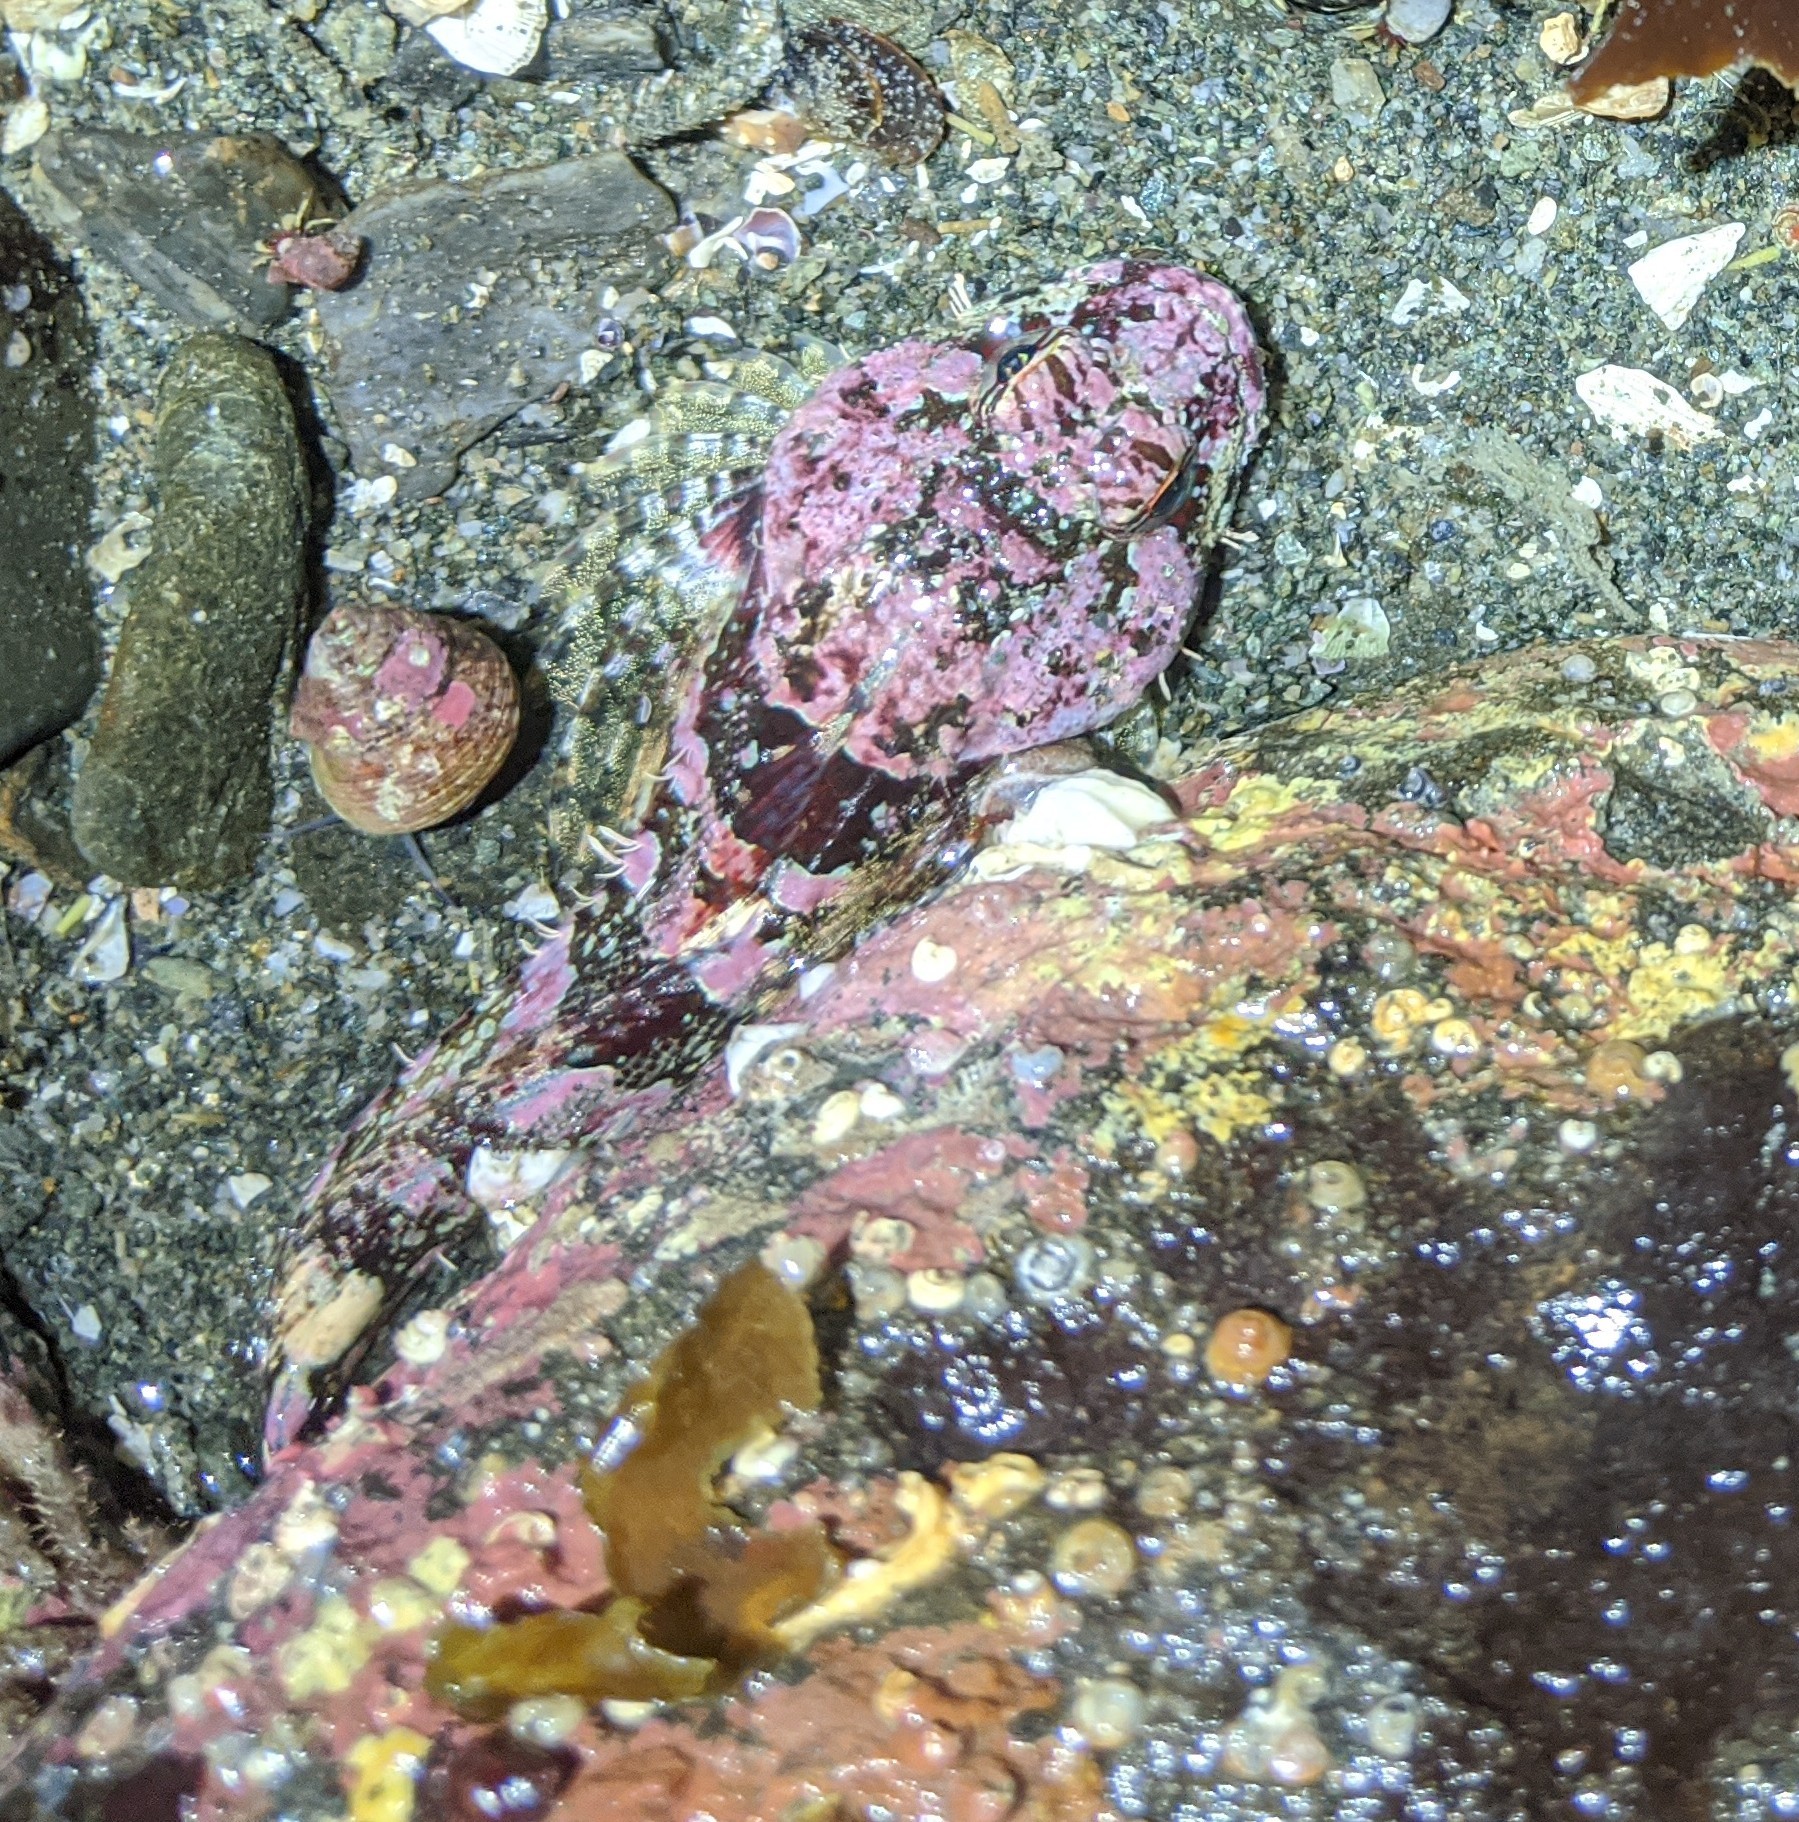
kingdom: Animalia
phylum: Chordata
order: Scorpaeniformes
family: Cottidae
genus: Artedius
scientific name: Artedius lateralis
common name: Smooth-head sculpin
